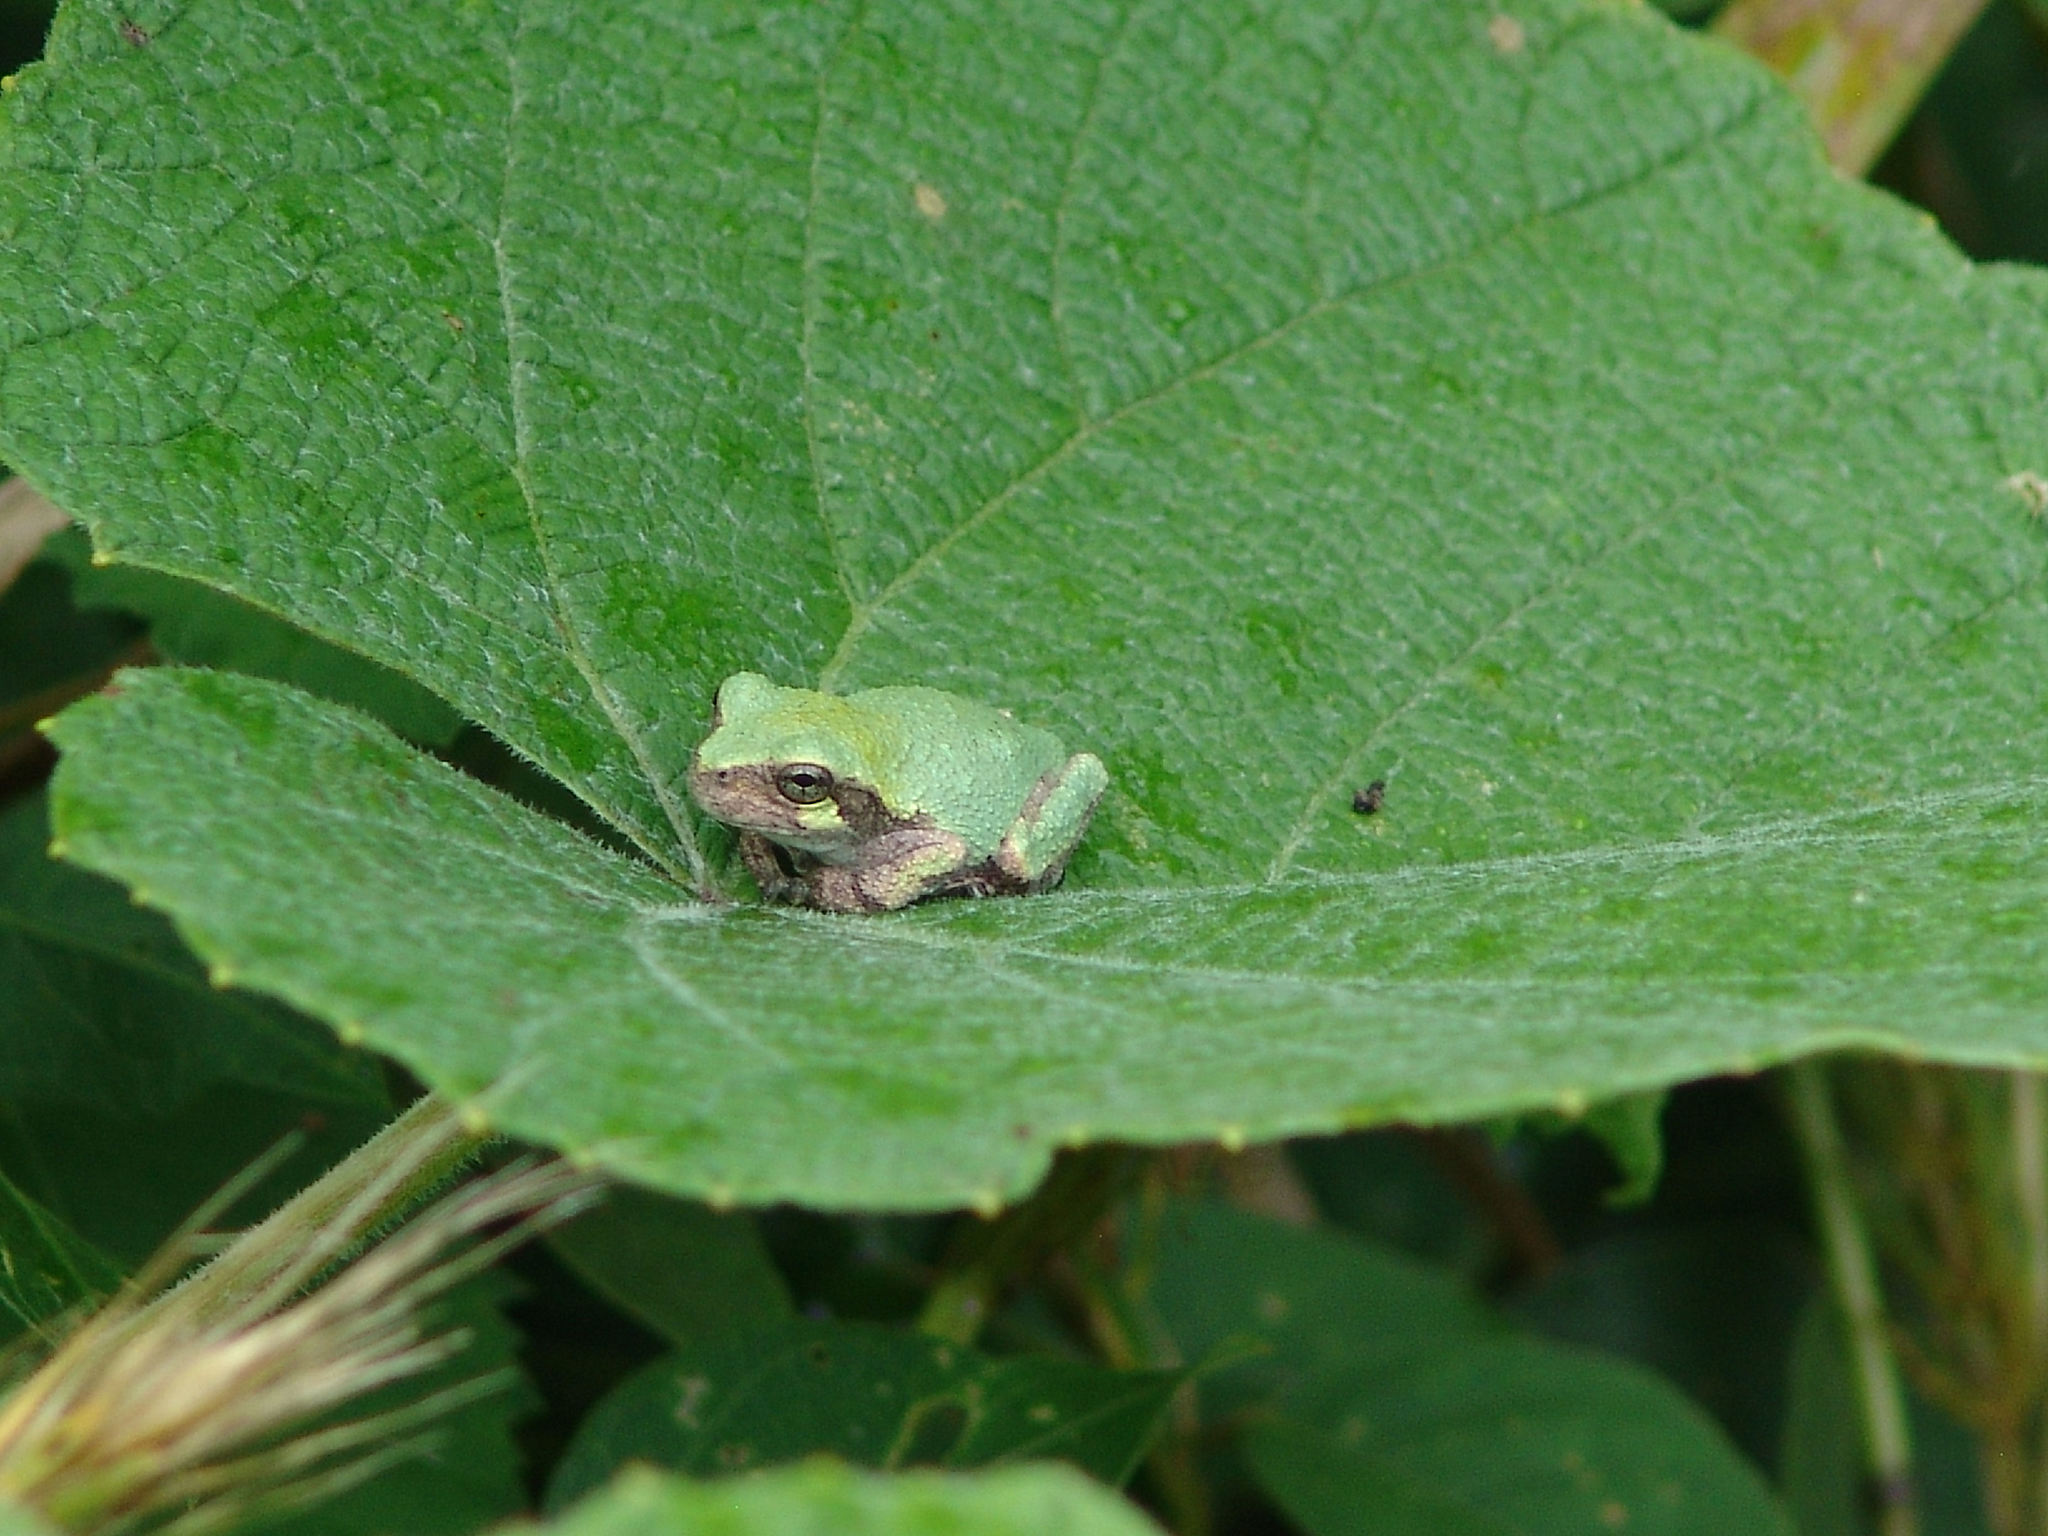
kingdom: Animalia
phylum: Chordata
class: Amphibia
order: Anura
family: Hylidae
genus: Dryophytes
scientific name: Dryophytes chrysoscelis
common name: Cope's gray treefrog
